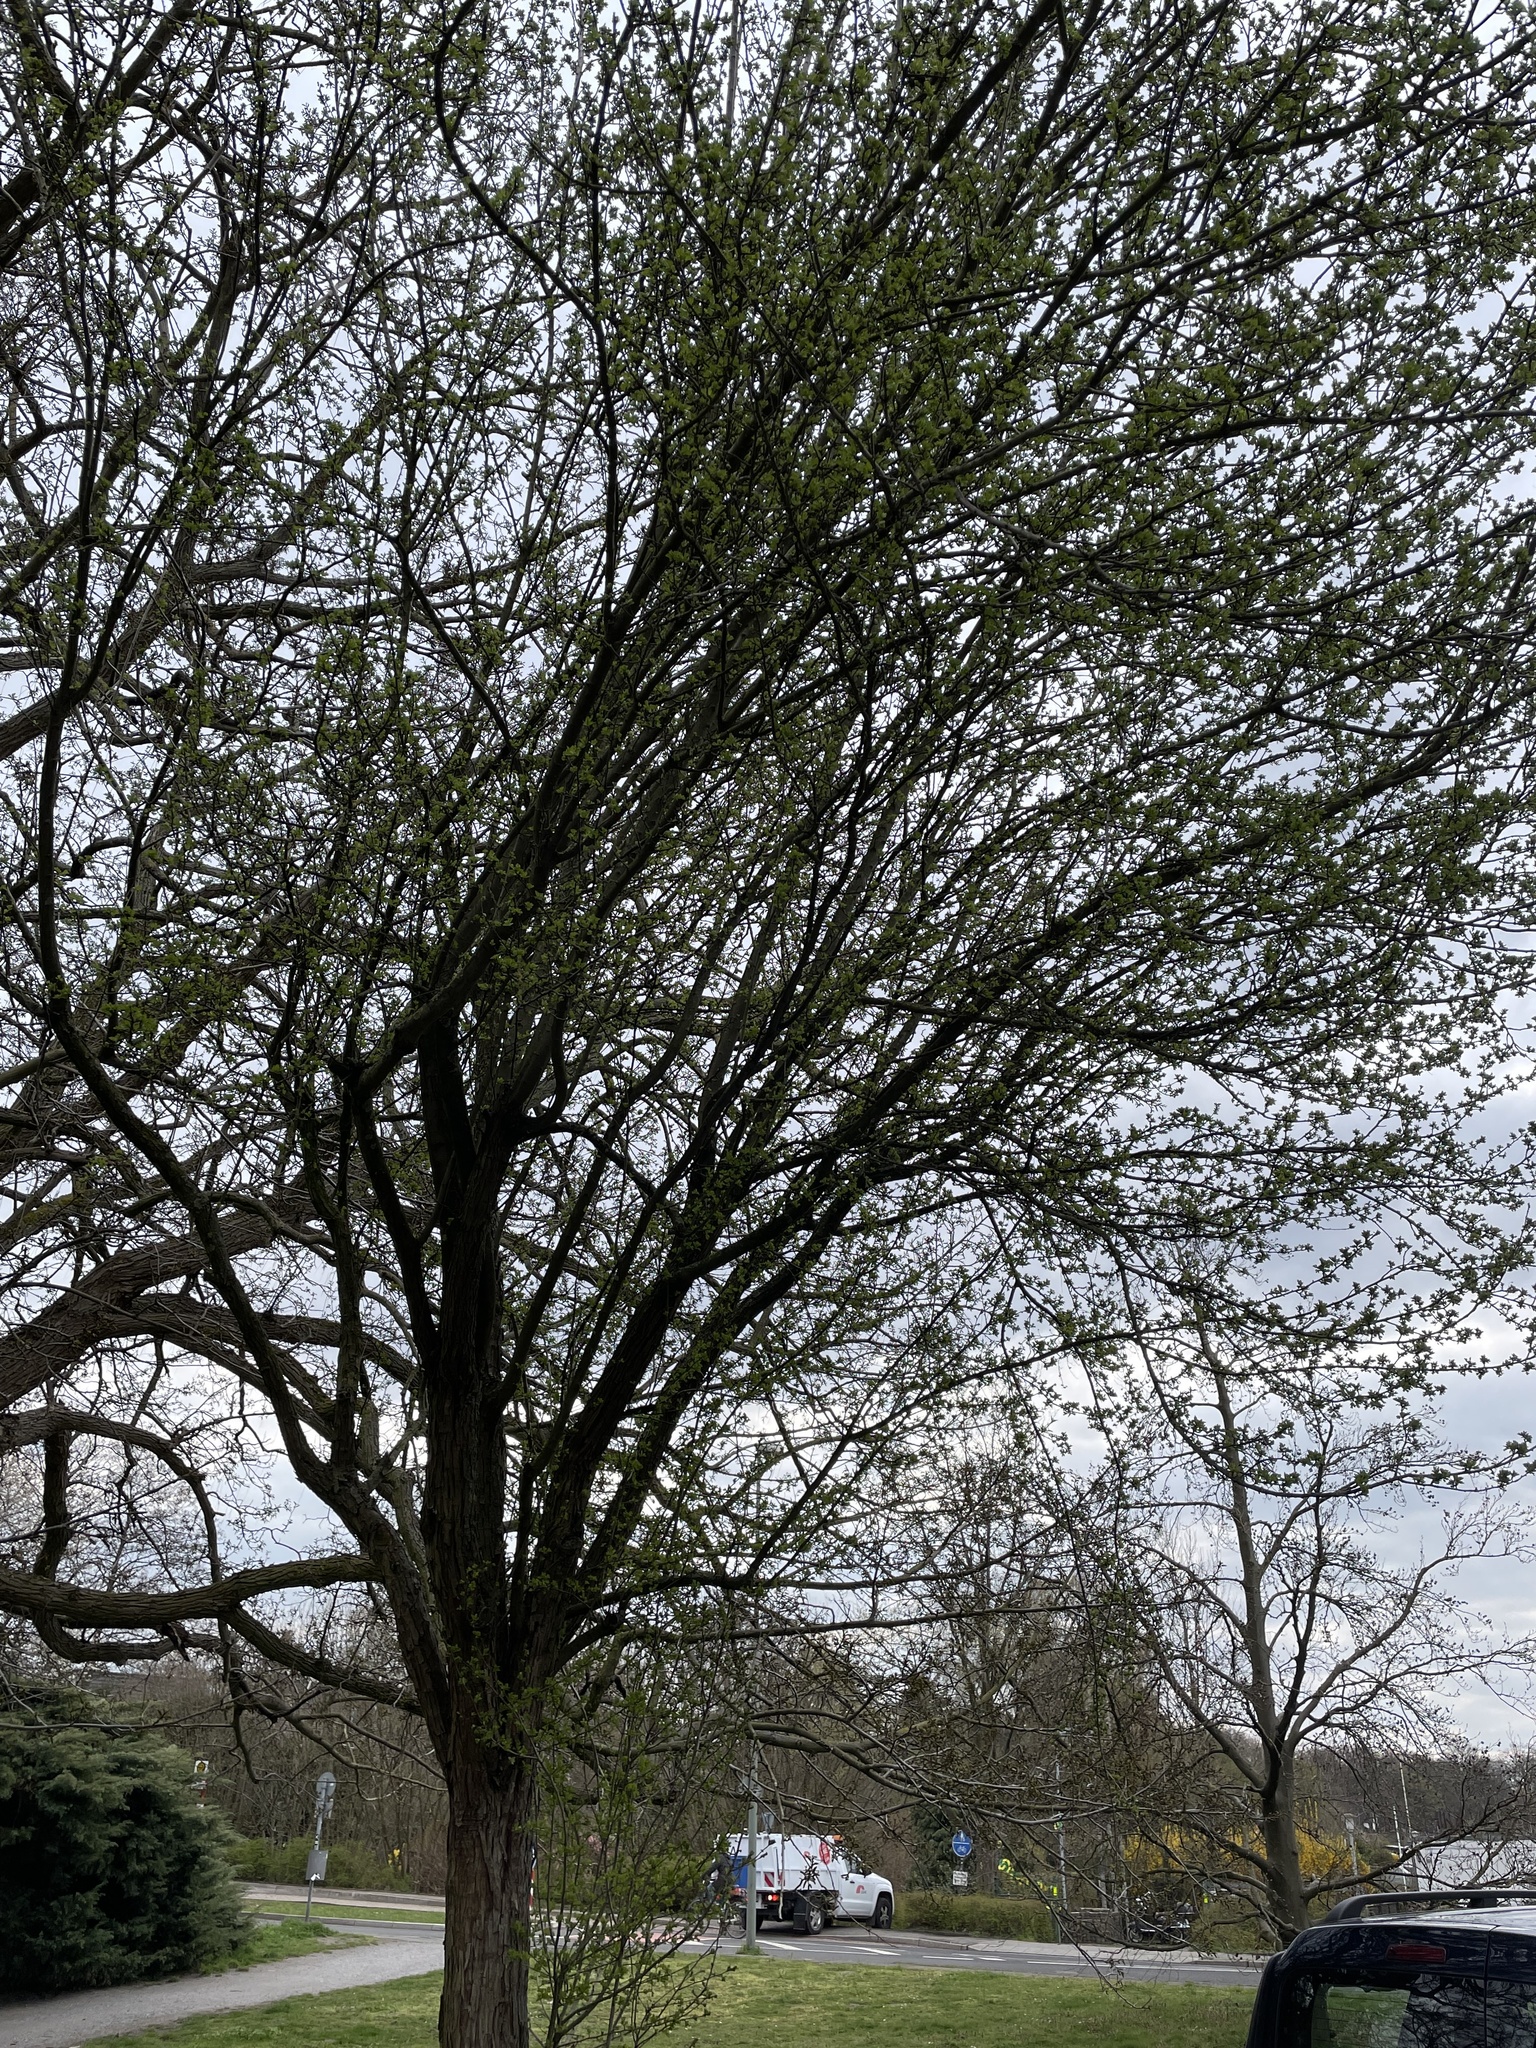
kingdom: Plantae
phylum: Tracheophyta
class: Magnoliopsida
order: Rosales
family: Rosaceae
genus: Crataegus
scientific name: Crataegus monogyna
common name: Hawthorn
